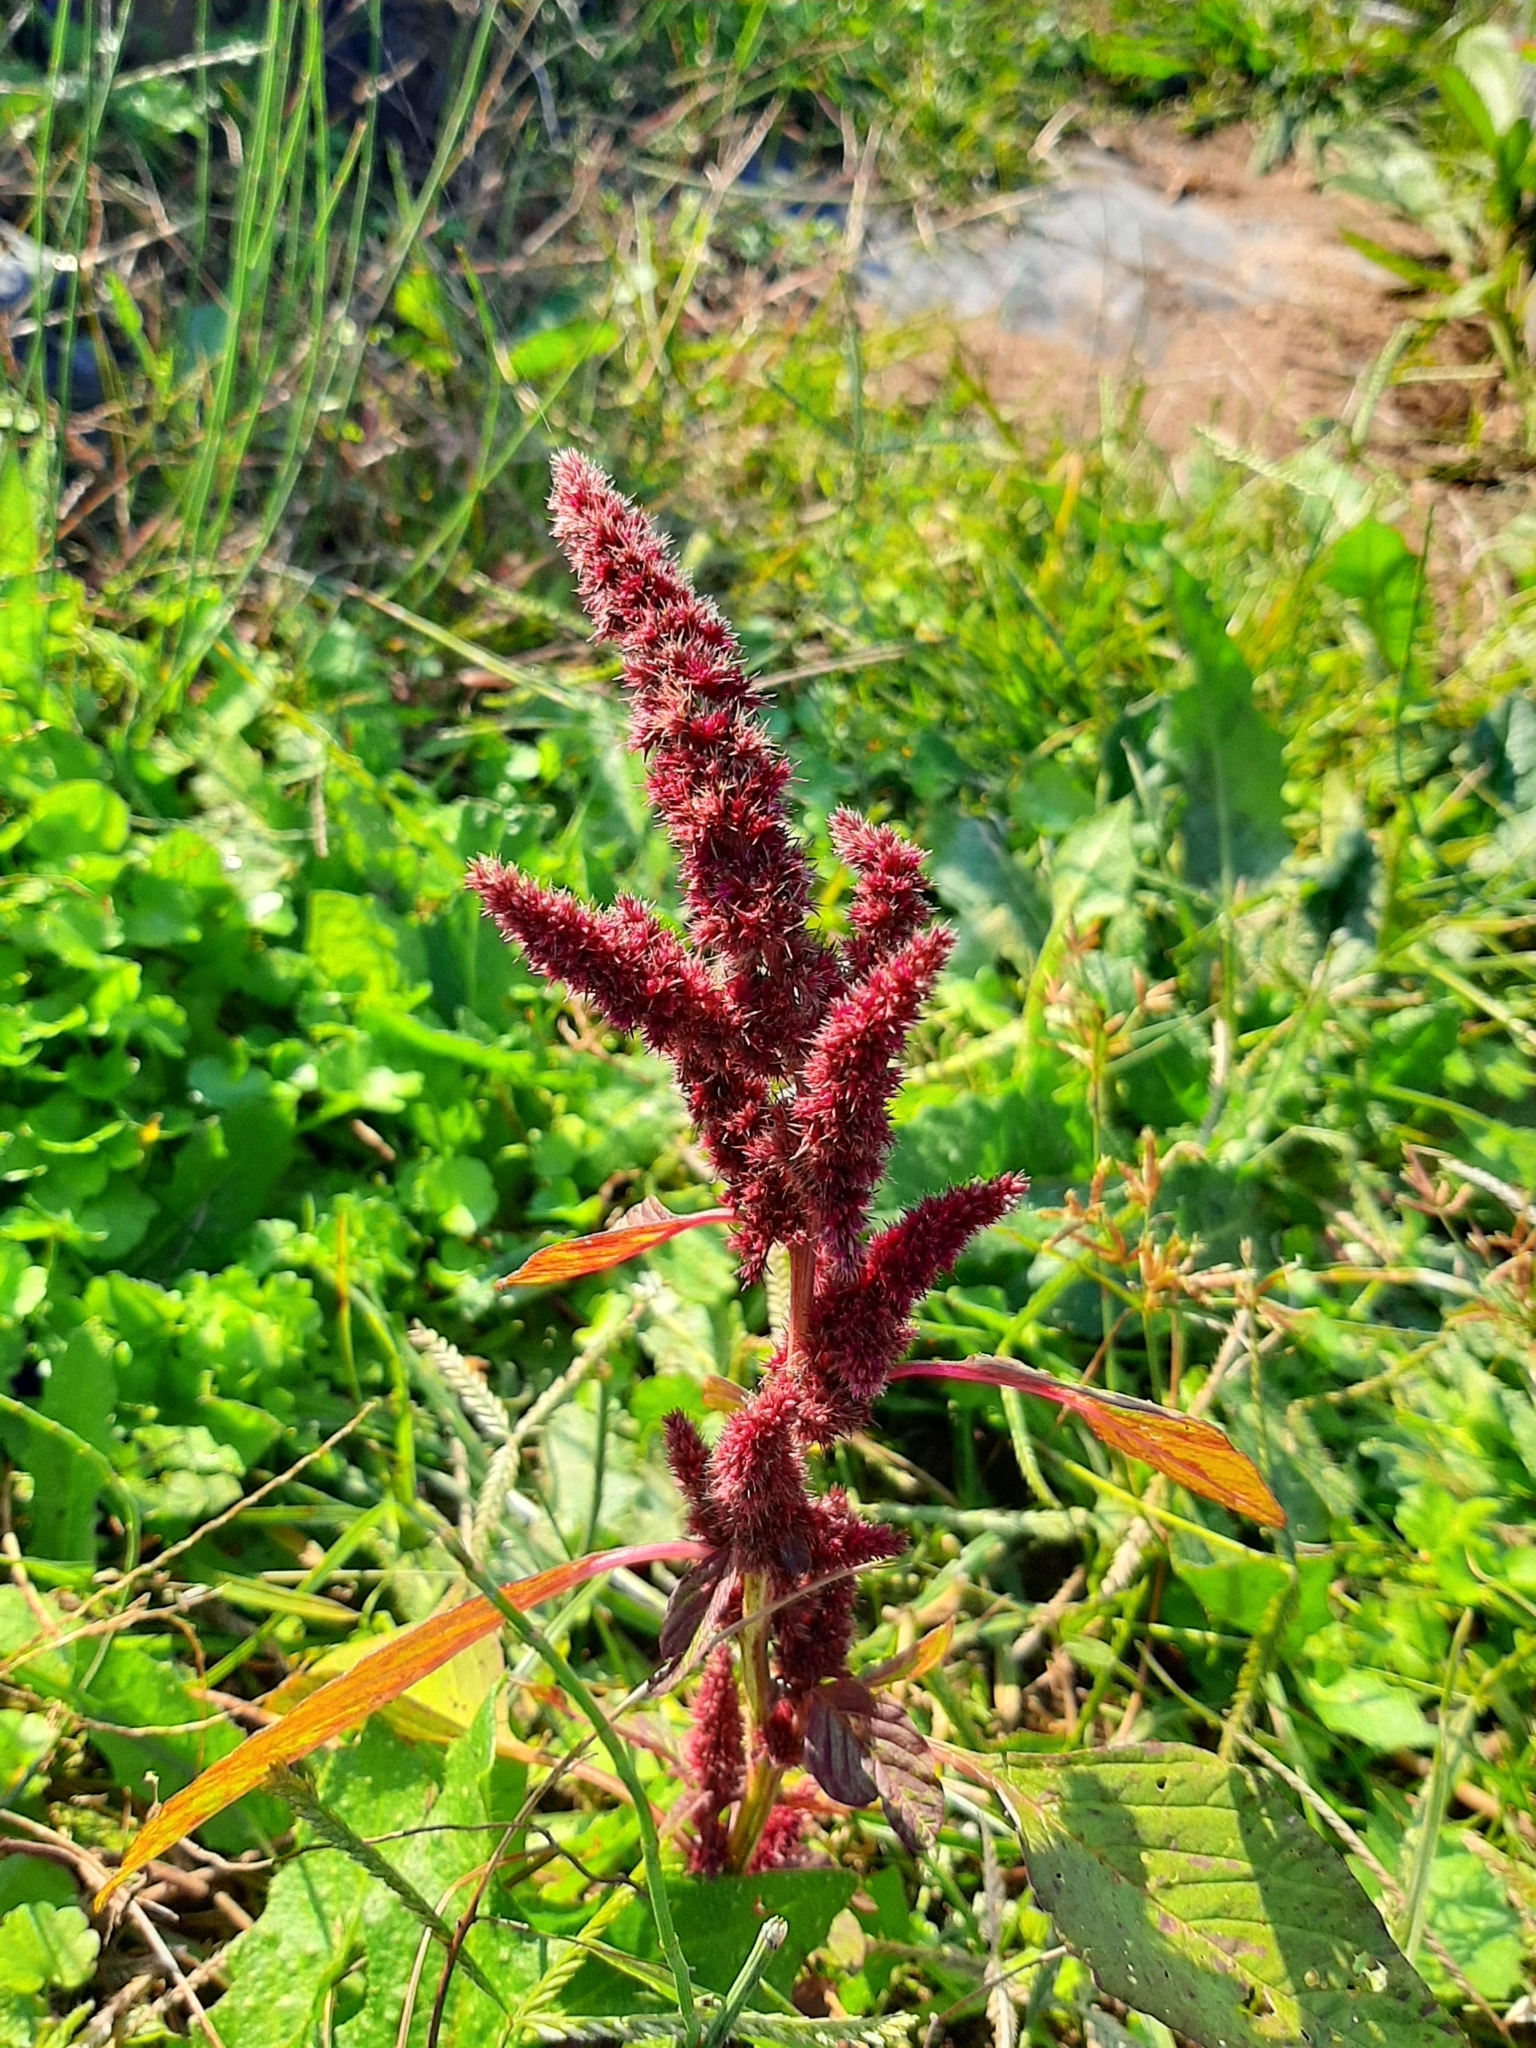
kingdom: Plantae
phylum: Tracheophyta
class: Magnoliopsida
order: Caryophyllales
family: Amaranthaceae
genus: Amaranthus
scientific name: Amaranthus cruentus
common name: Purple amaranth
